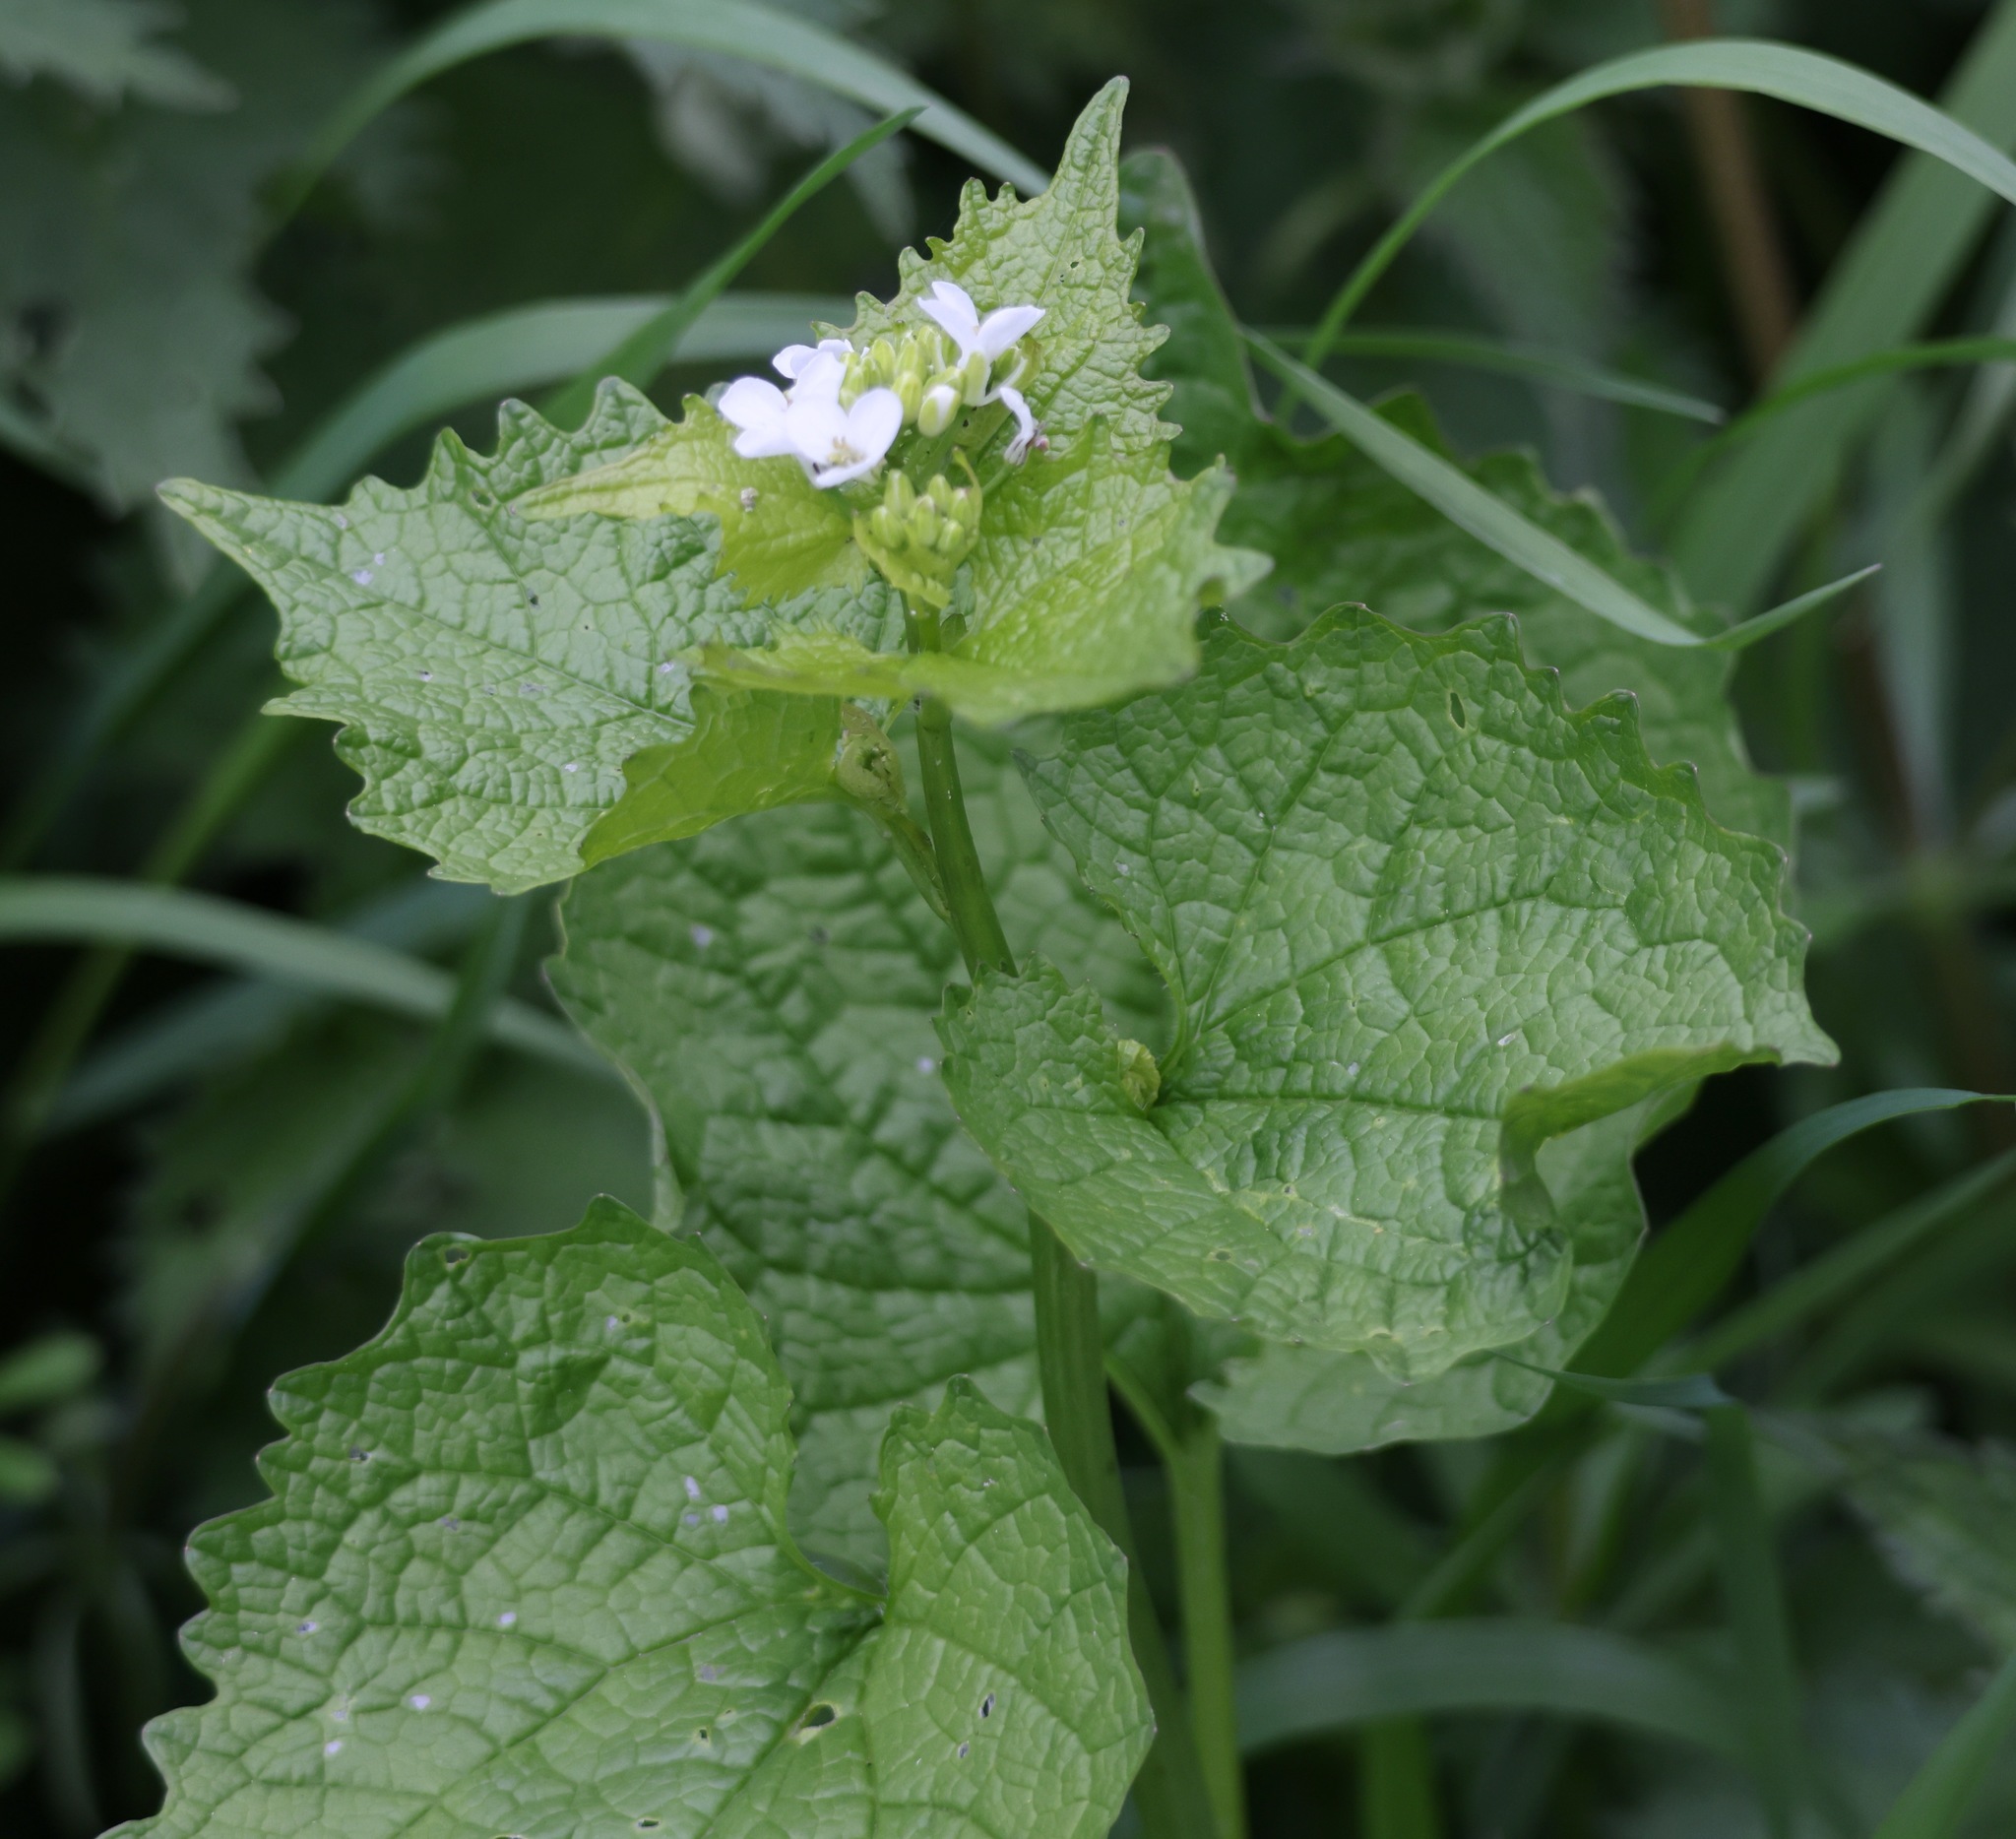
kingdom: Plantae
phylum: Tracheophyta
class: Magnoliopsida
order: Brassicales
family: Brassicaceae
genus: Alliaria
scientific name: Alliaria petiolata
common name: Garlic mustard
